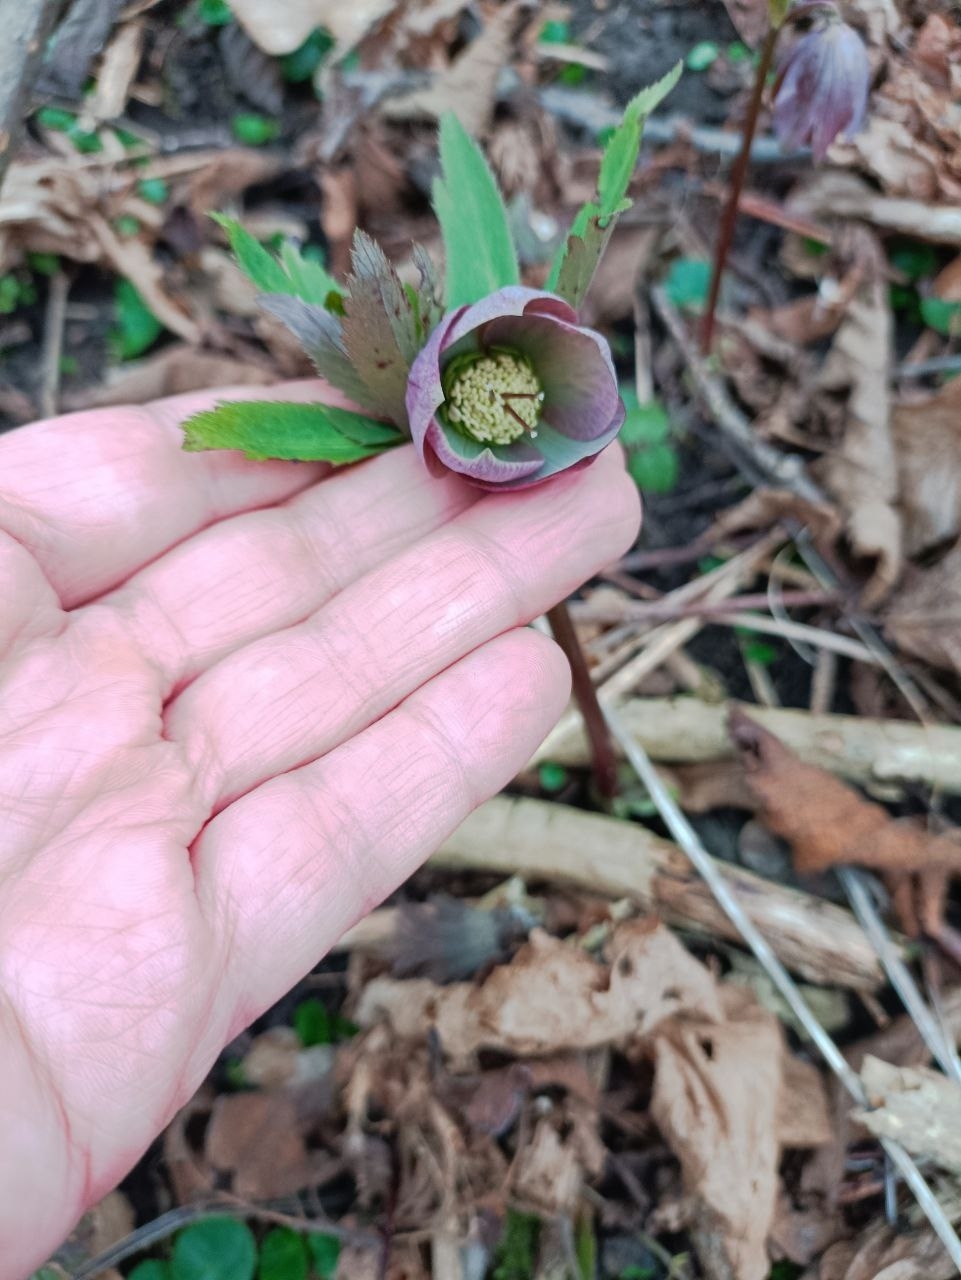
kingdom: Plantae
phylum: Tracheophyta
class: Magnoliopsida
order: Ranunculales
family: Ranunculaceae
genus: Helleborus
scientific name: Helleborus purpurascens
